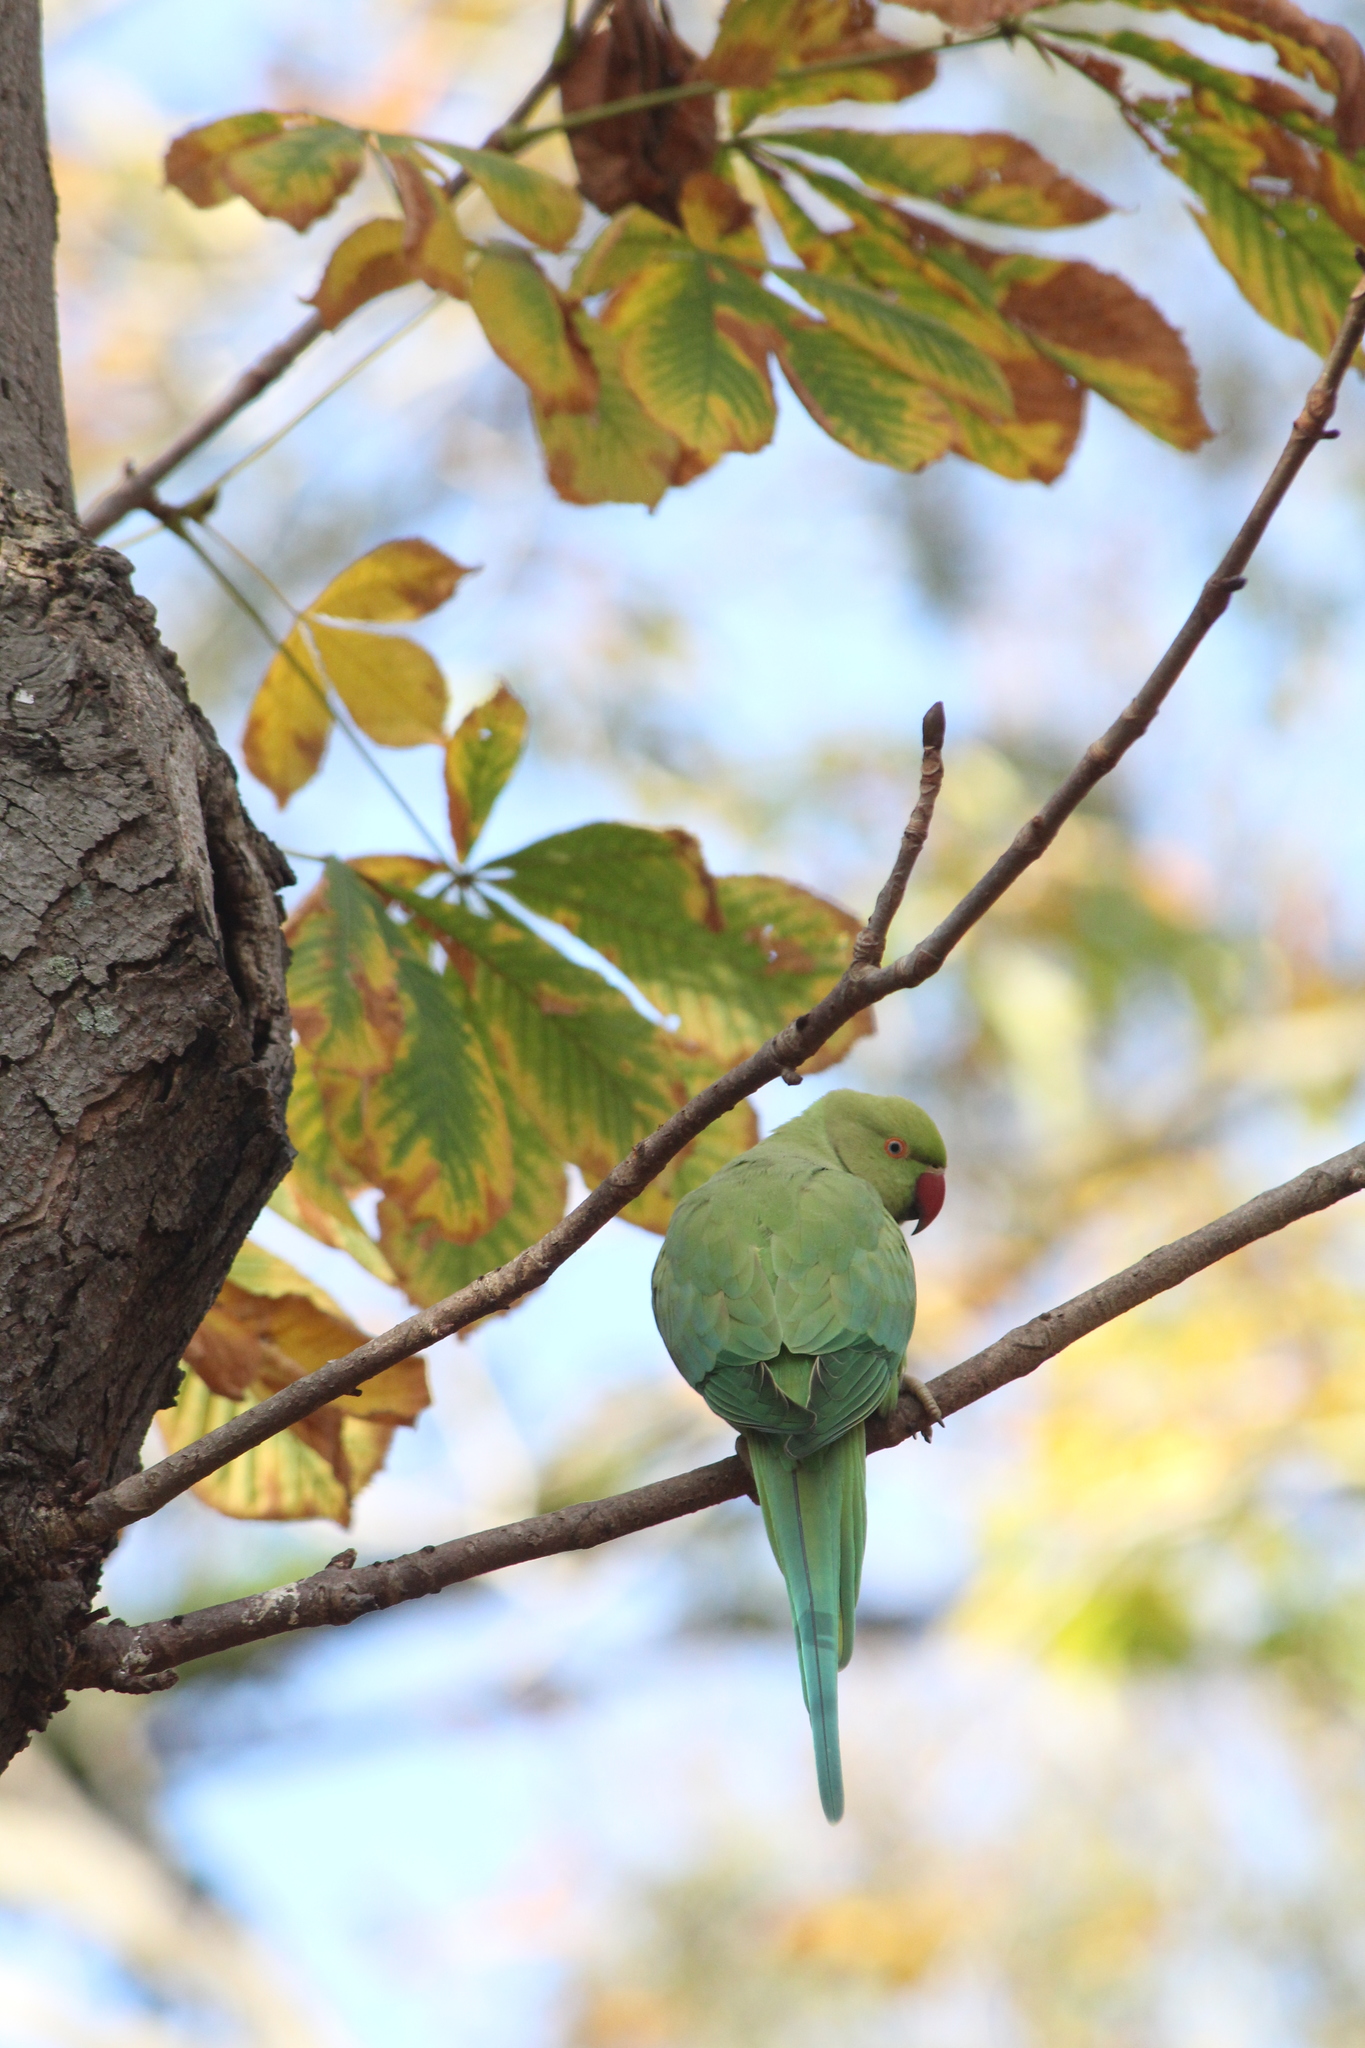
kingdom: Animalia
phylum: Chordata
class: Aves
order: Psittaciformes
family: Psittacidae
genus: Psittacula
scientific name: Psittacula krameri
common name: Rose-ringed parakeet
